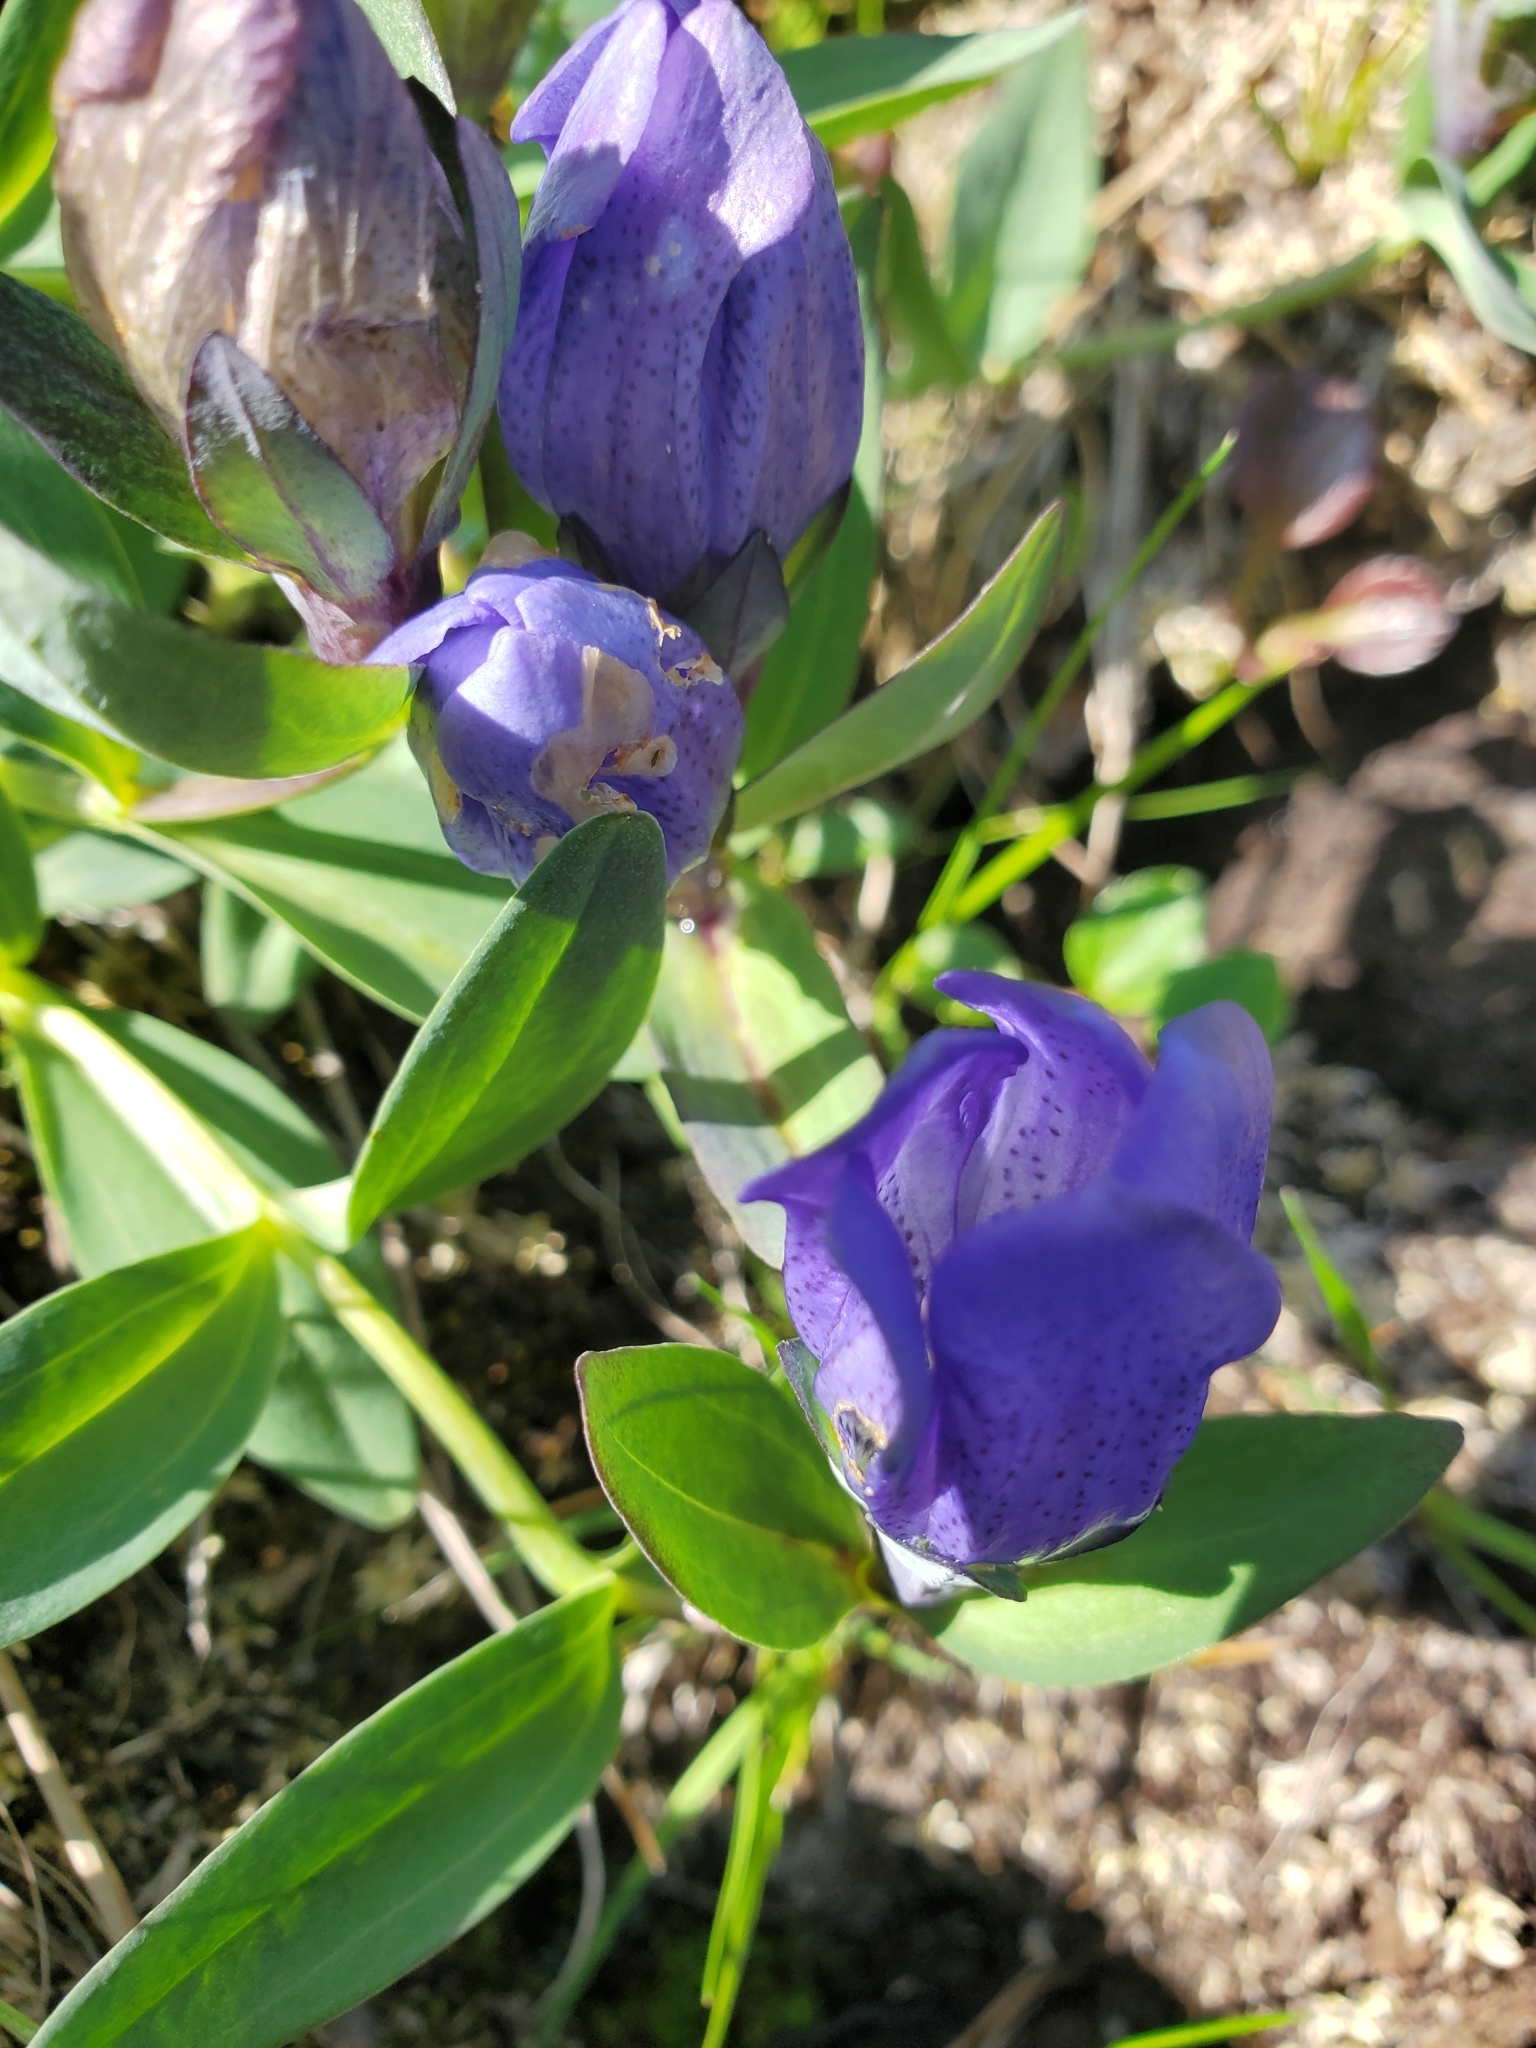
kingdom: Plantae
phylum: Tracheophyta
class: Magnoliopsida
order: Gentianales
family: Gentianaceae
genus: Gentiana
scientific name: Gentiana sceptrum
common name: Pacific gentian
